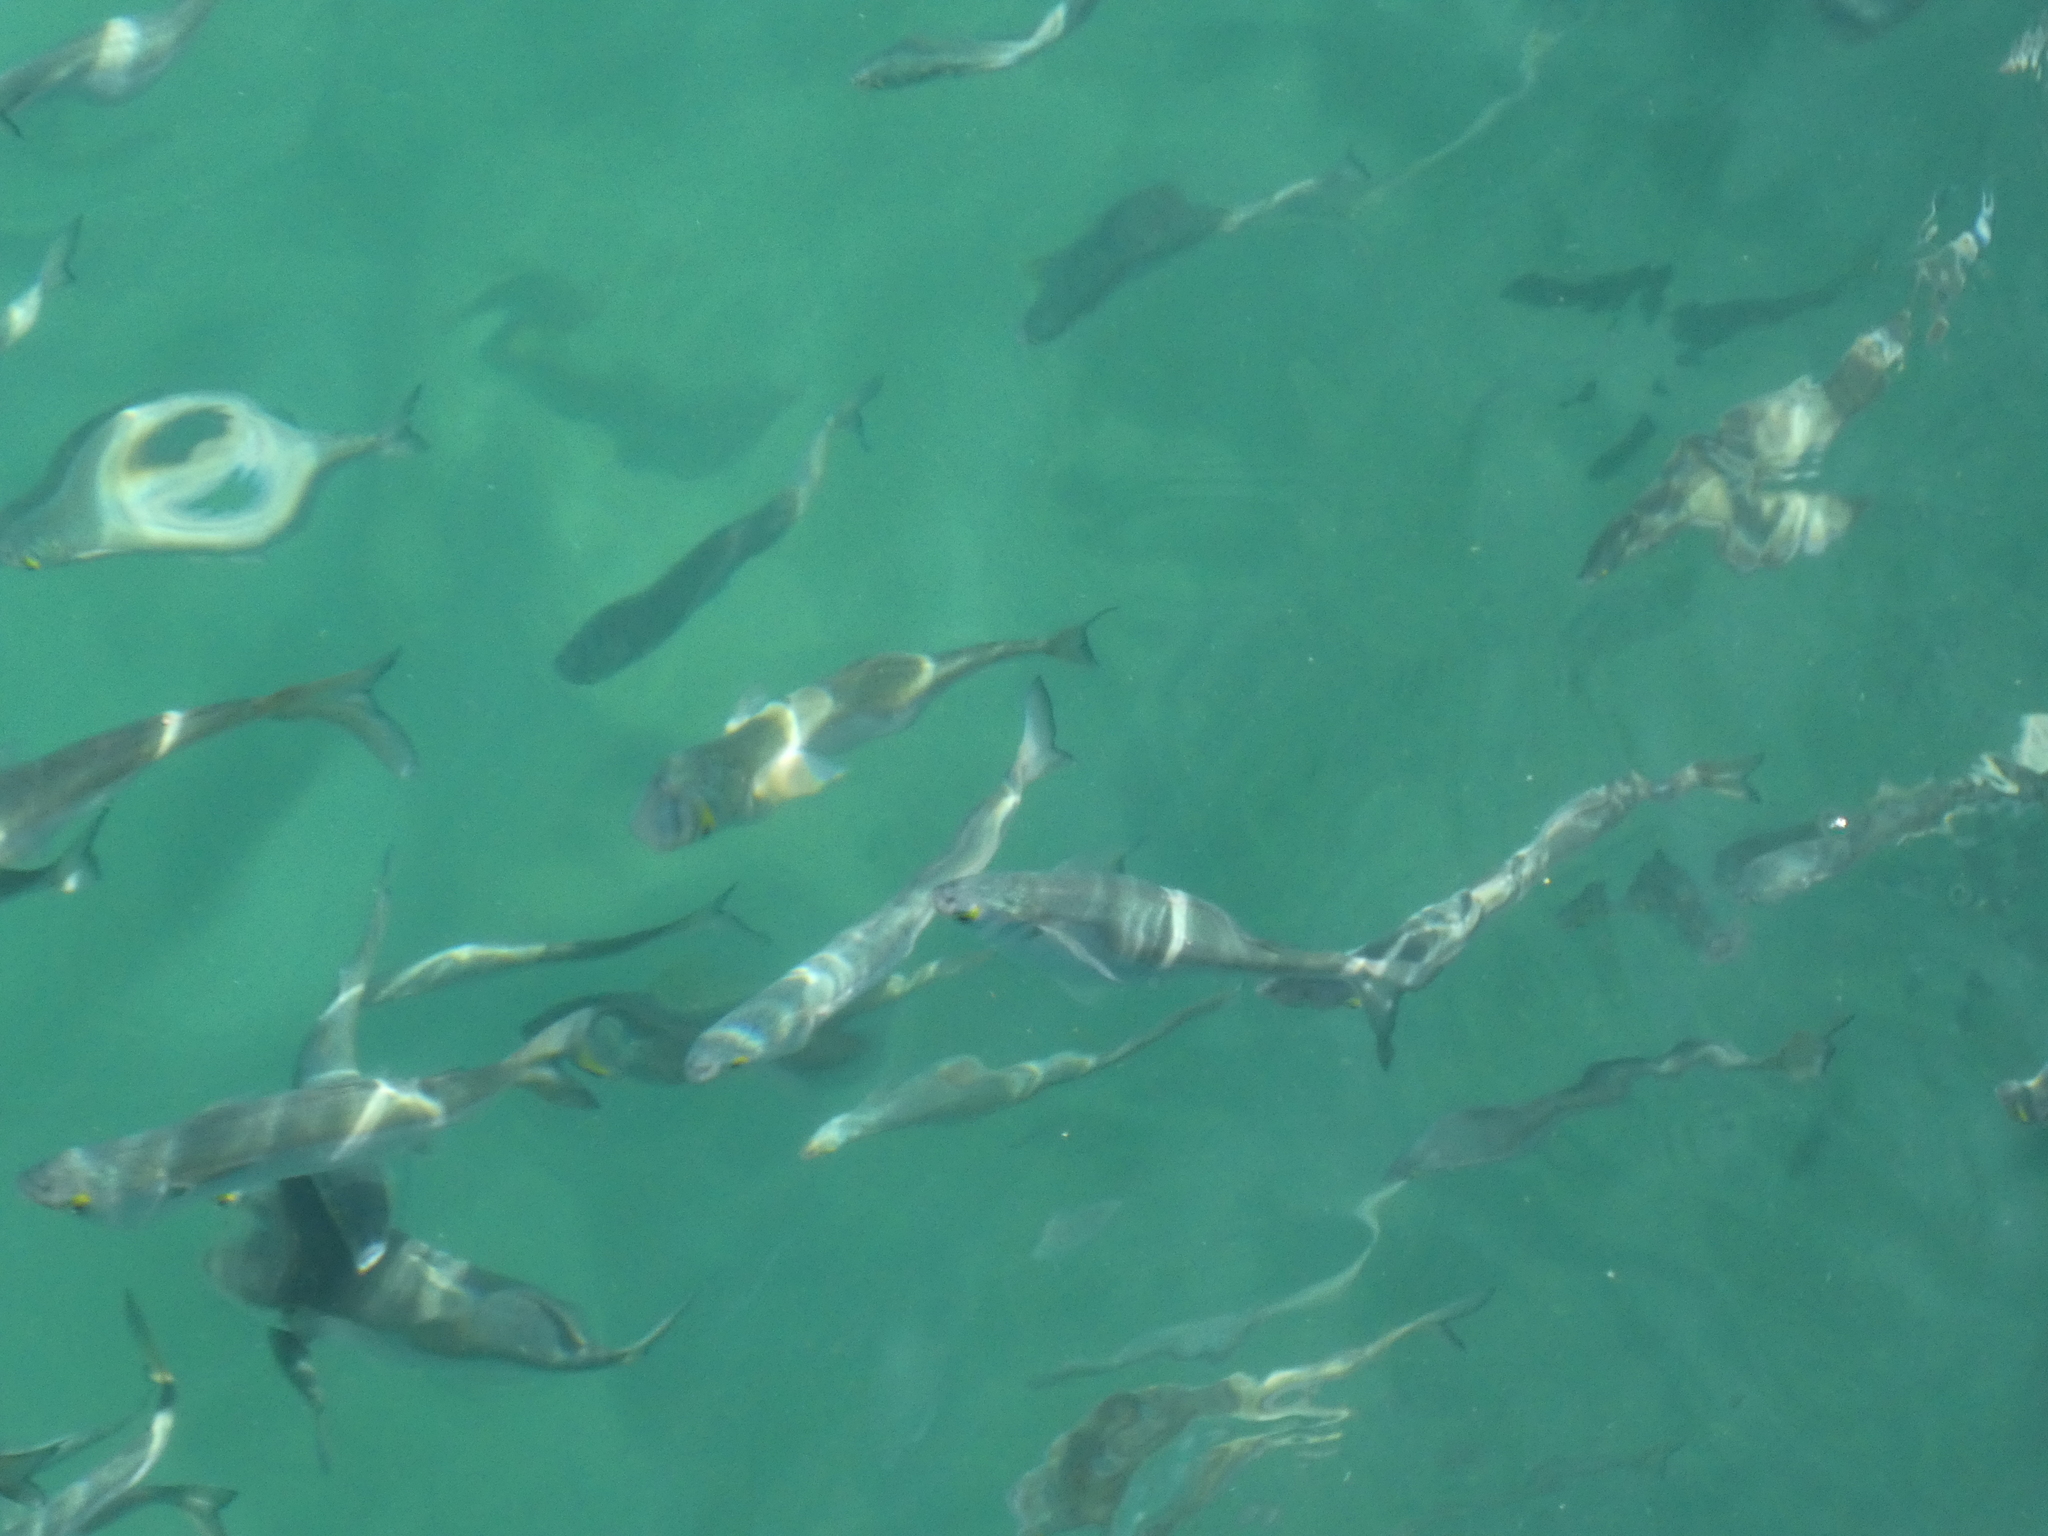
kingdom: Animalia
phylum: Chordata
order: Mugiliformes
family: Mugilidae
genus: Aldrichetta
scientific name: Aldrichetta forsteri
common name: Yellow-eye mullet
